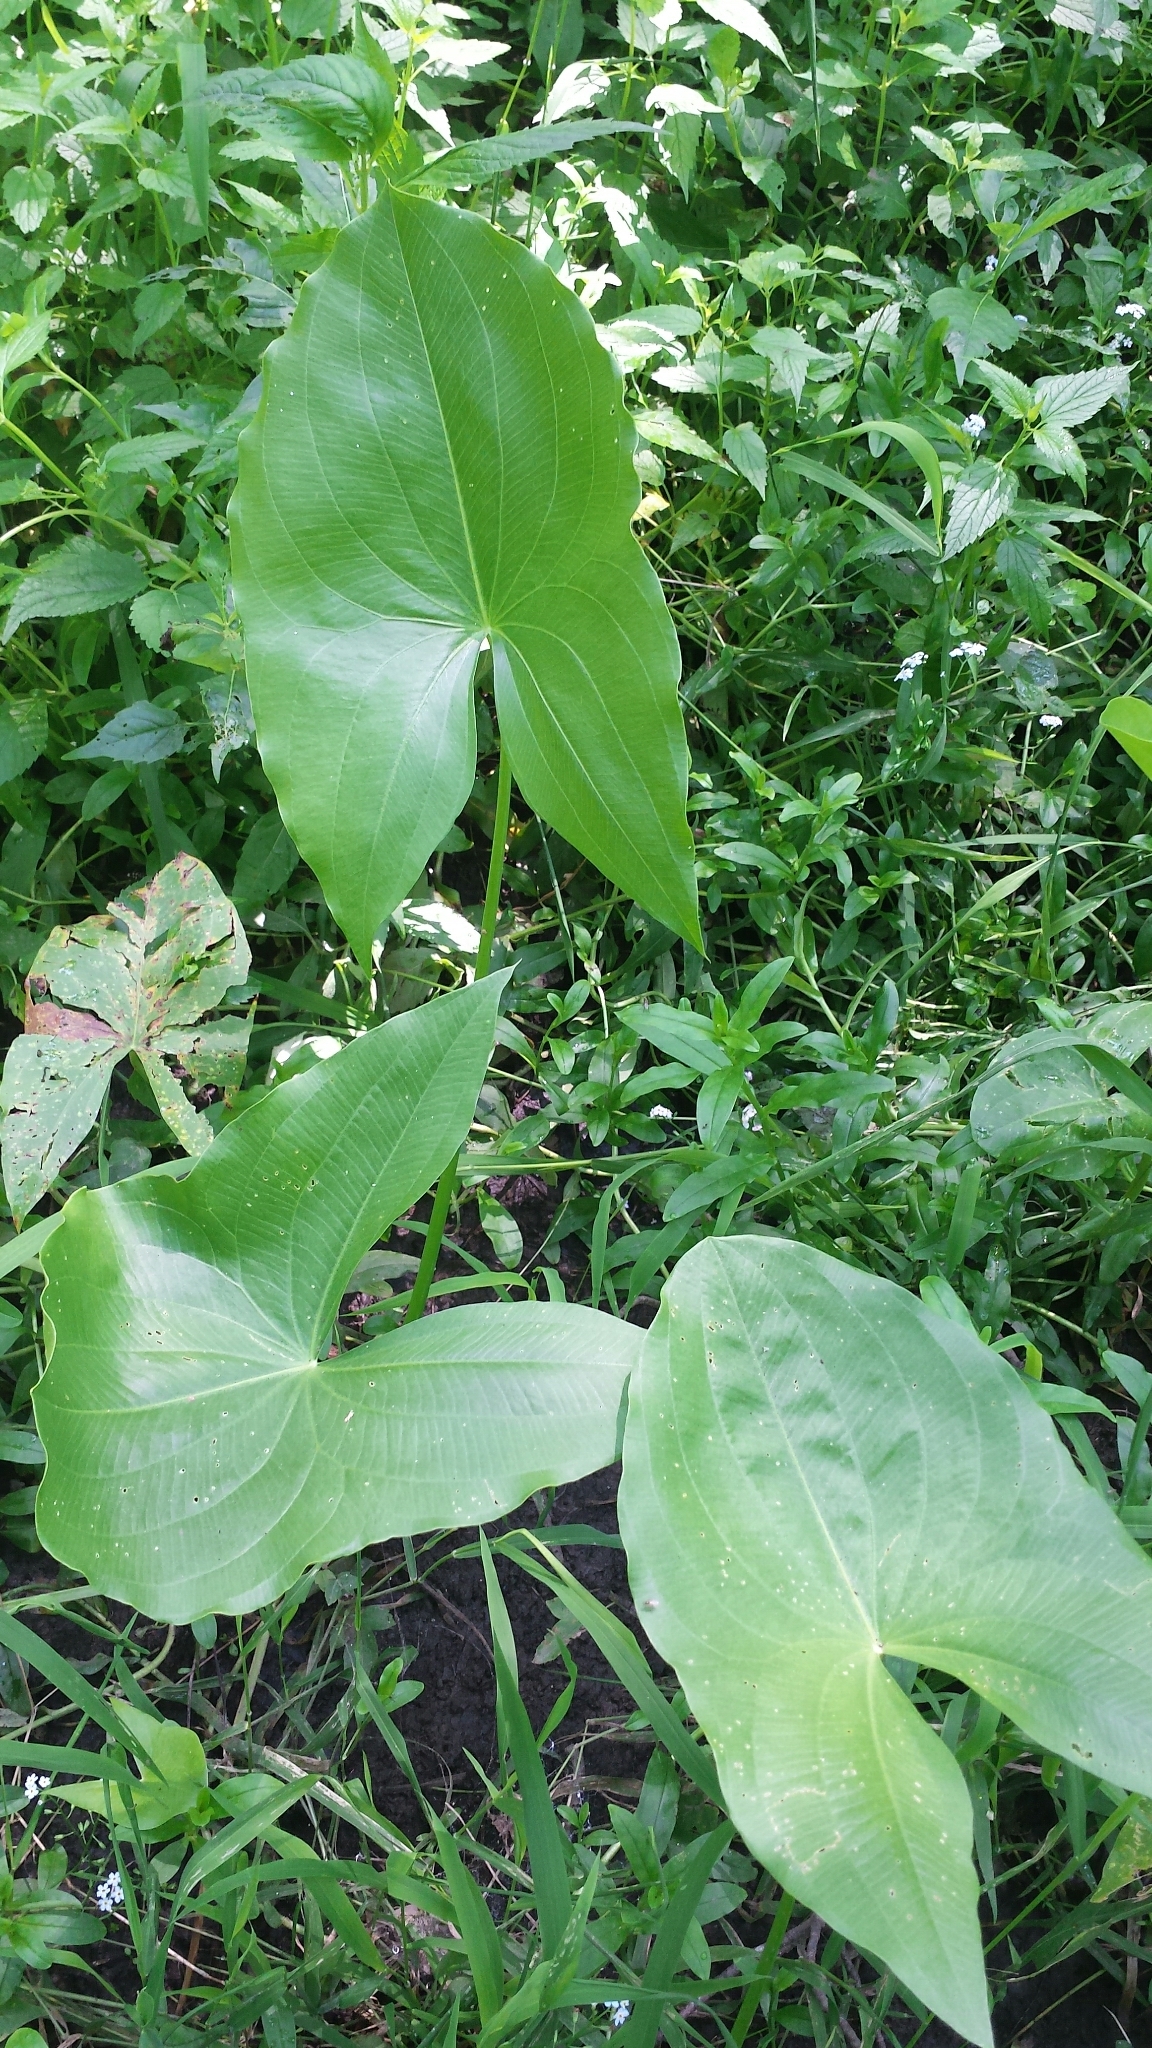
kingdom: Plantae
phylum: Tracheophyta
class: Liliopsida
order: Alismatales
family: Alismataceae
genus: Sagittaria
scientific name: Sagittaria latifolia
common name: Duck-potato
